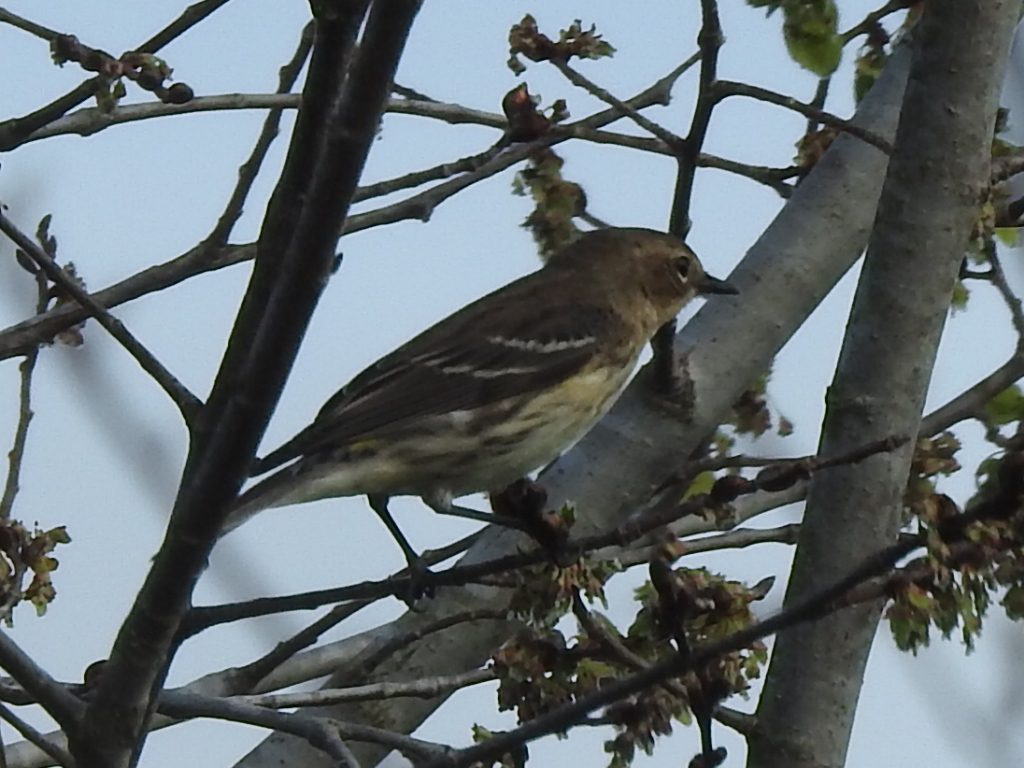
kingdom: Animalia
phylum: Chordata
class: Aves
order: Passeriformes
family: Parulidae
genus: Setophaga
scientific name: Setophaga coronata
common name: Myrtle warbler
